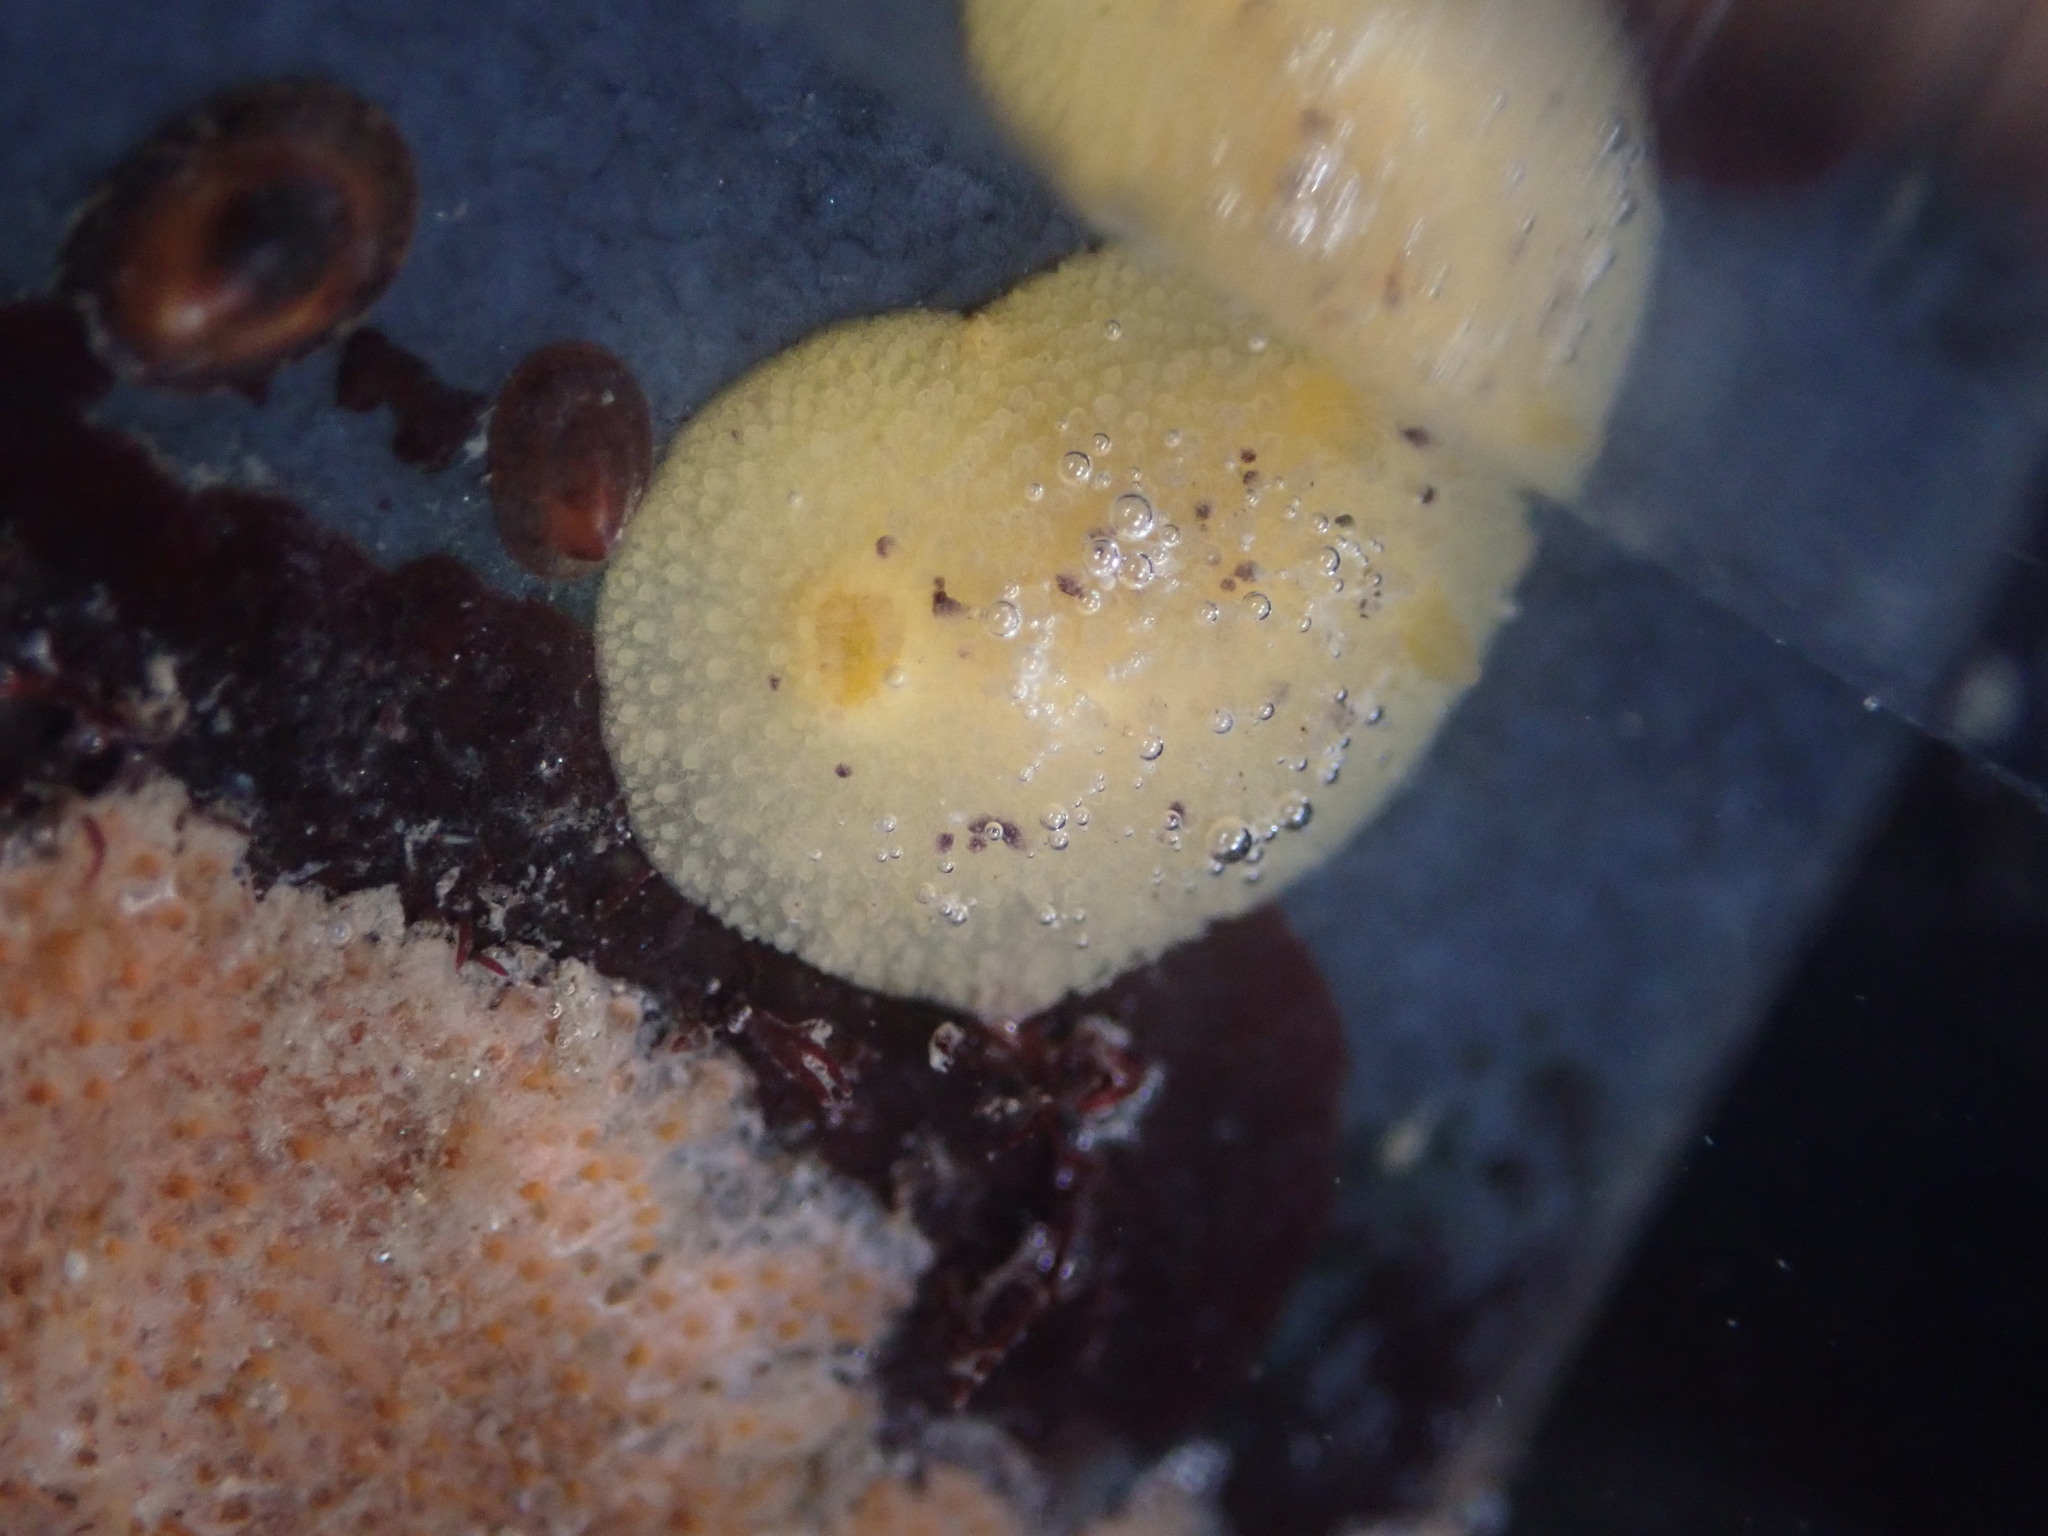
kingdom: Animalia
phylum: Mollusca
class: Gastropoda
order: Nudibranchia
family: Dorididae
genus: Doris
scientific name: Doris montereyensis
